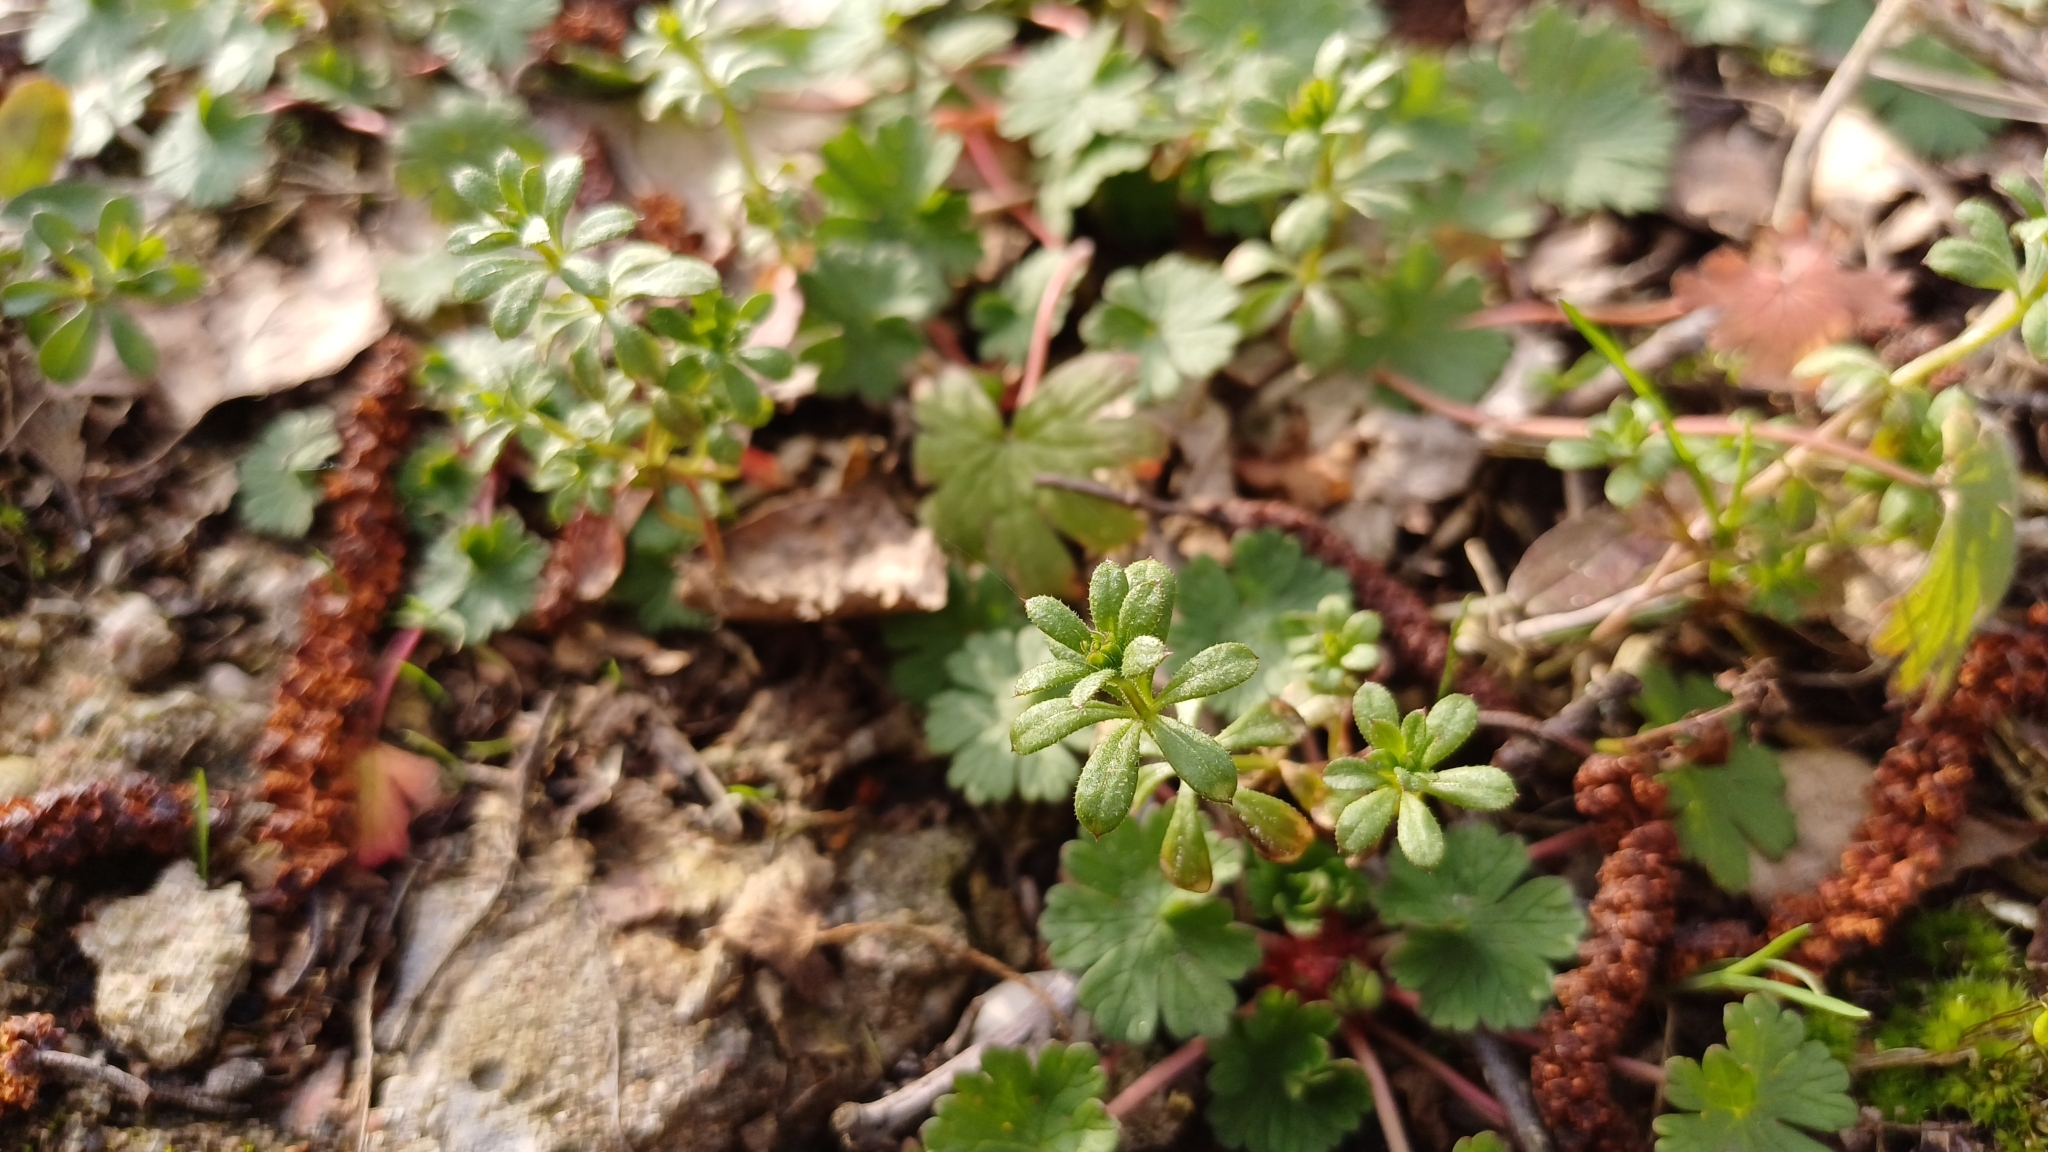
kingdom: Plantae
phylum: Tracheophyta
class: Magnoliopsida
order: Gentianales
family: Rubiaceae
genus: Galium
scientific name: Galium aparine
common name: Cleavers
